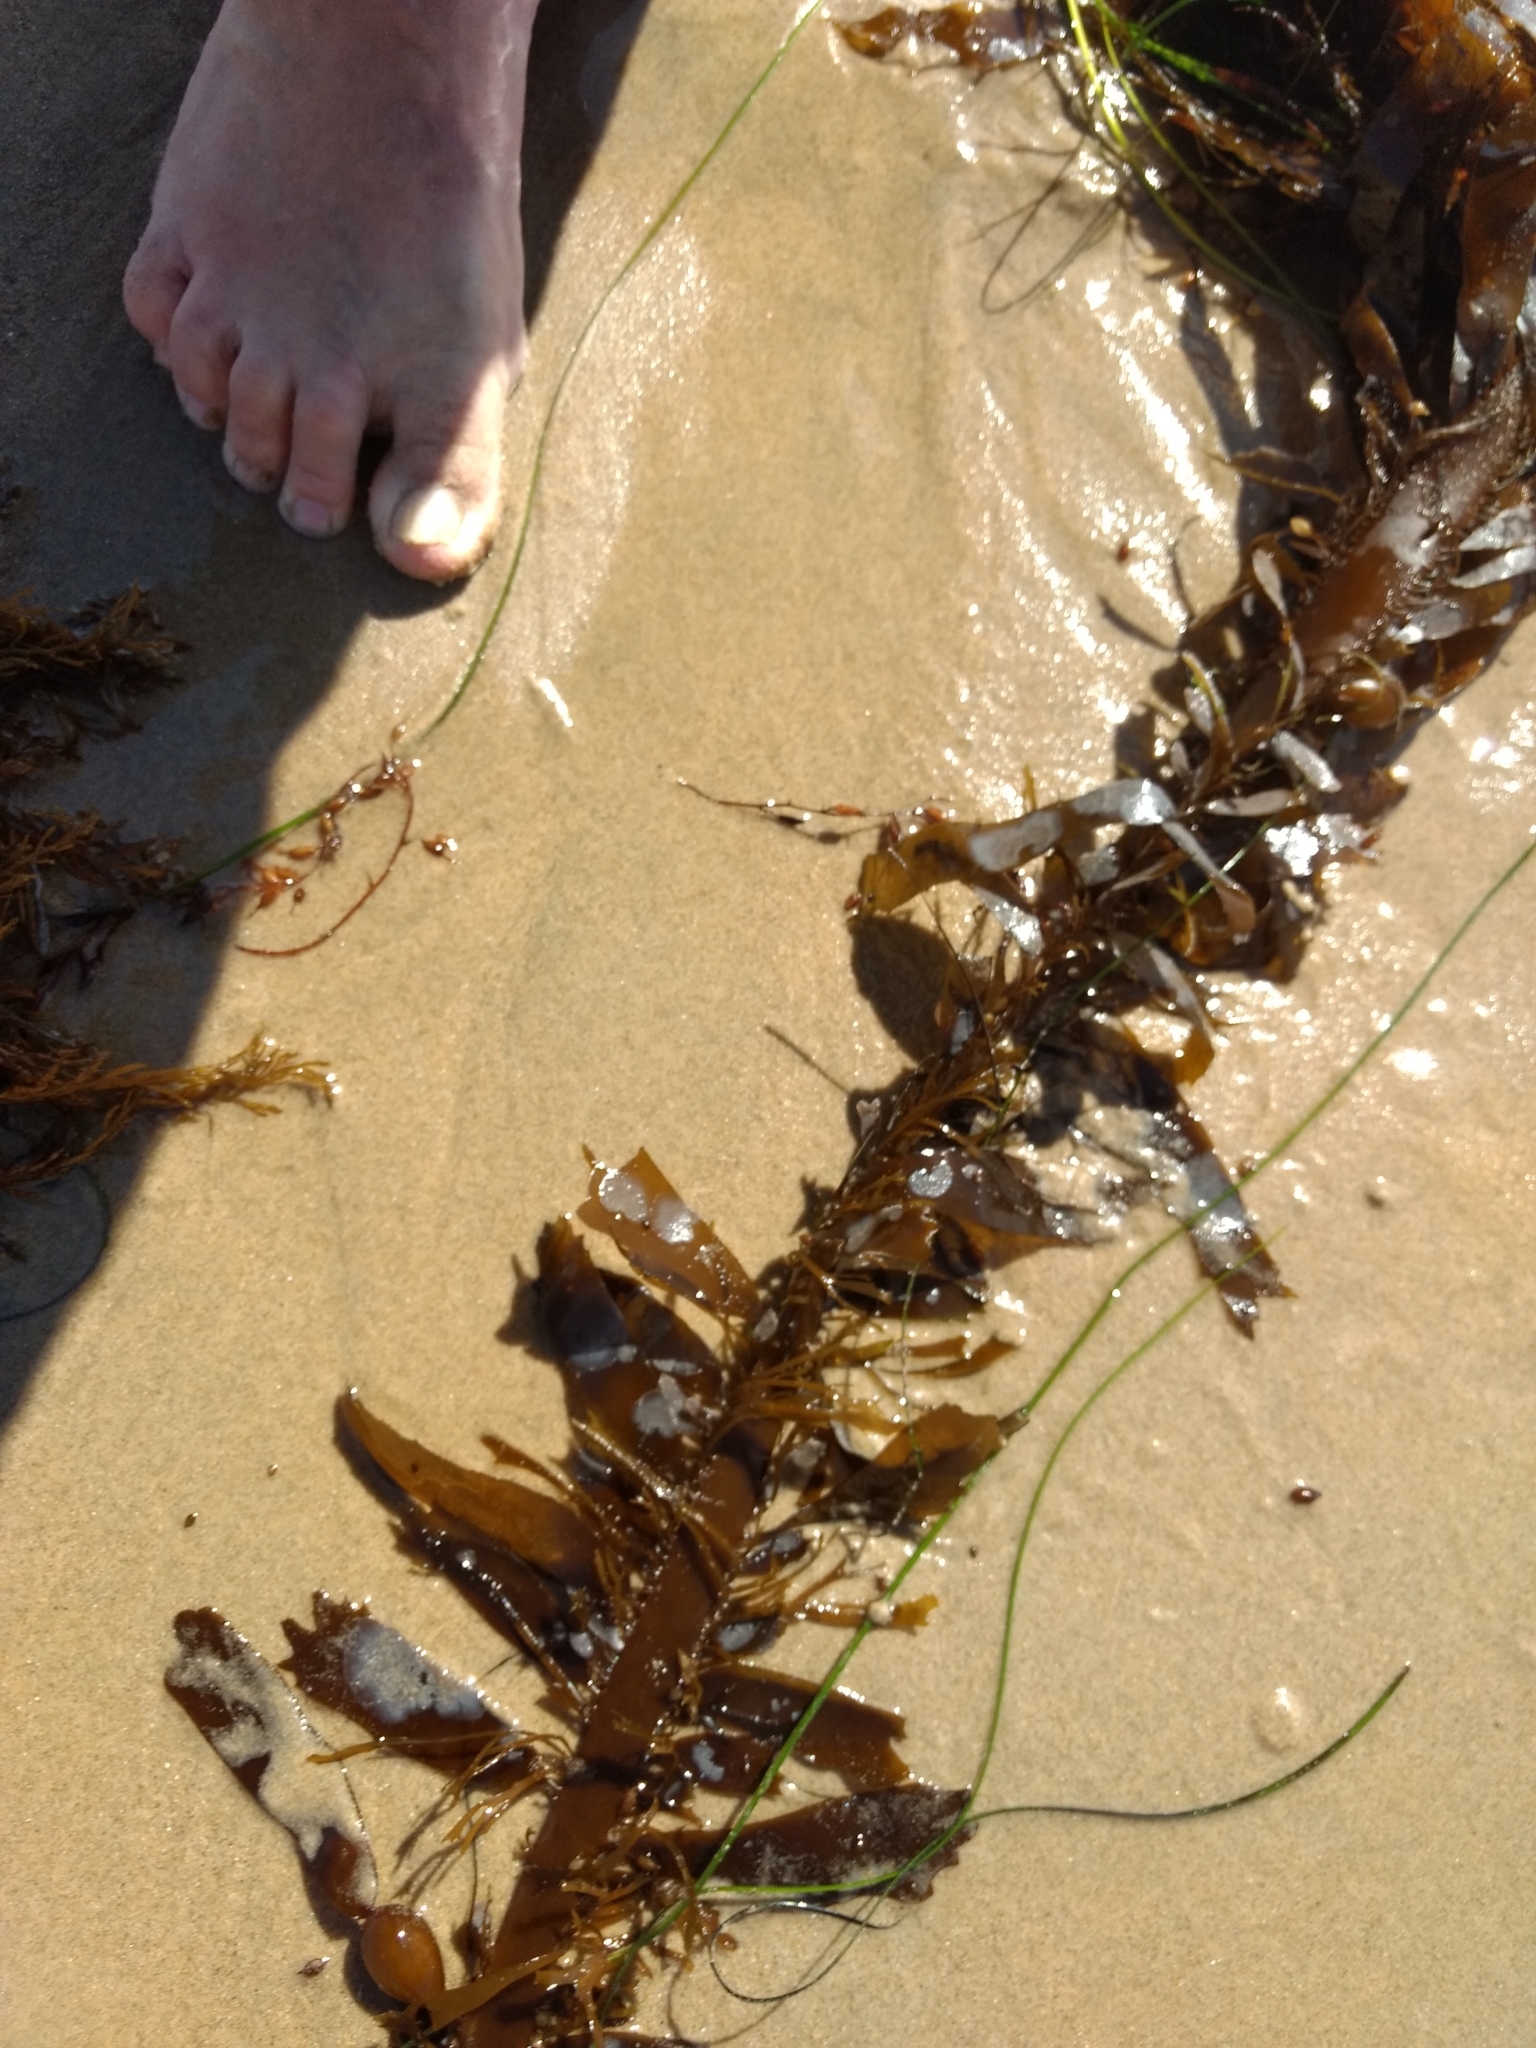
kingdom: Chromista
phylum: Ochrophyta
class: Phaeophyceae
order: Laminariales
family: Lessoniaceae
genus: Egregia
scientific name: Egregia menziesii
